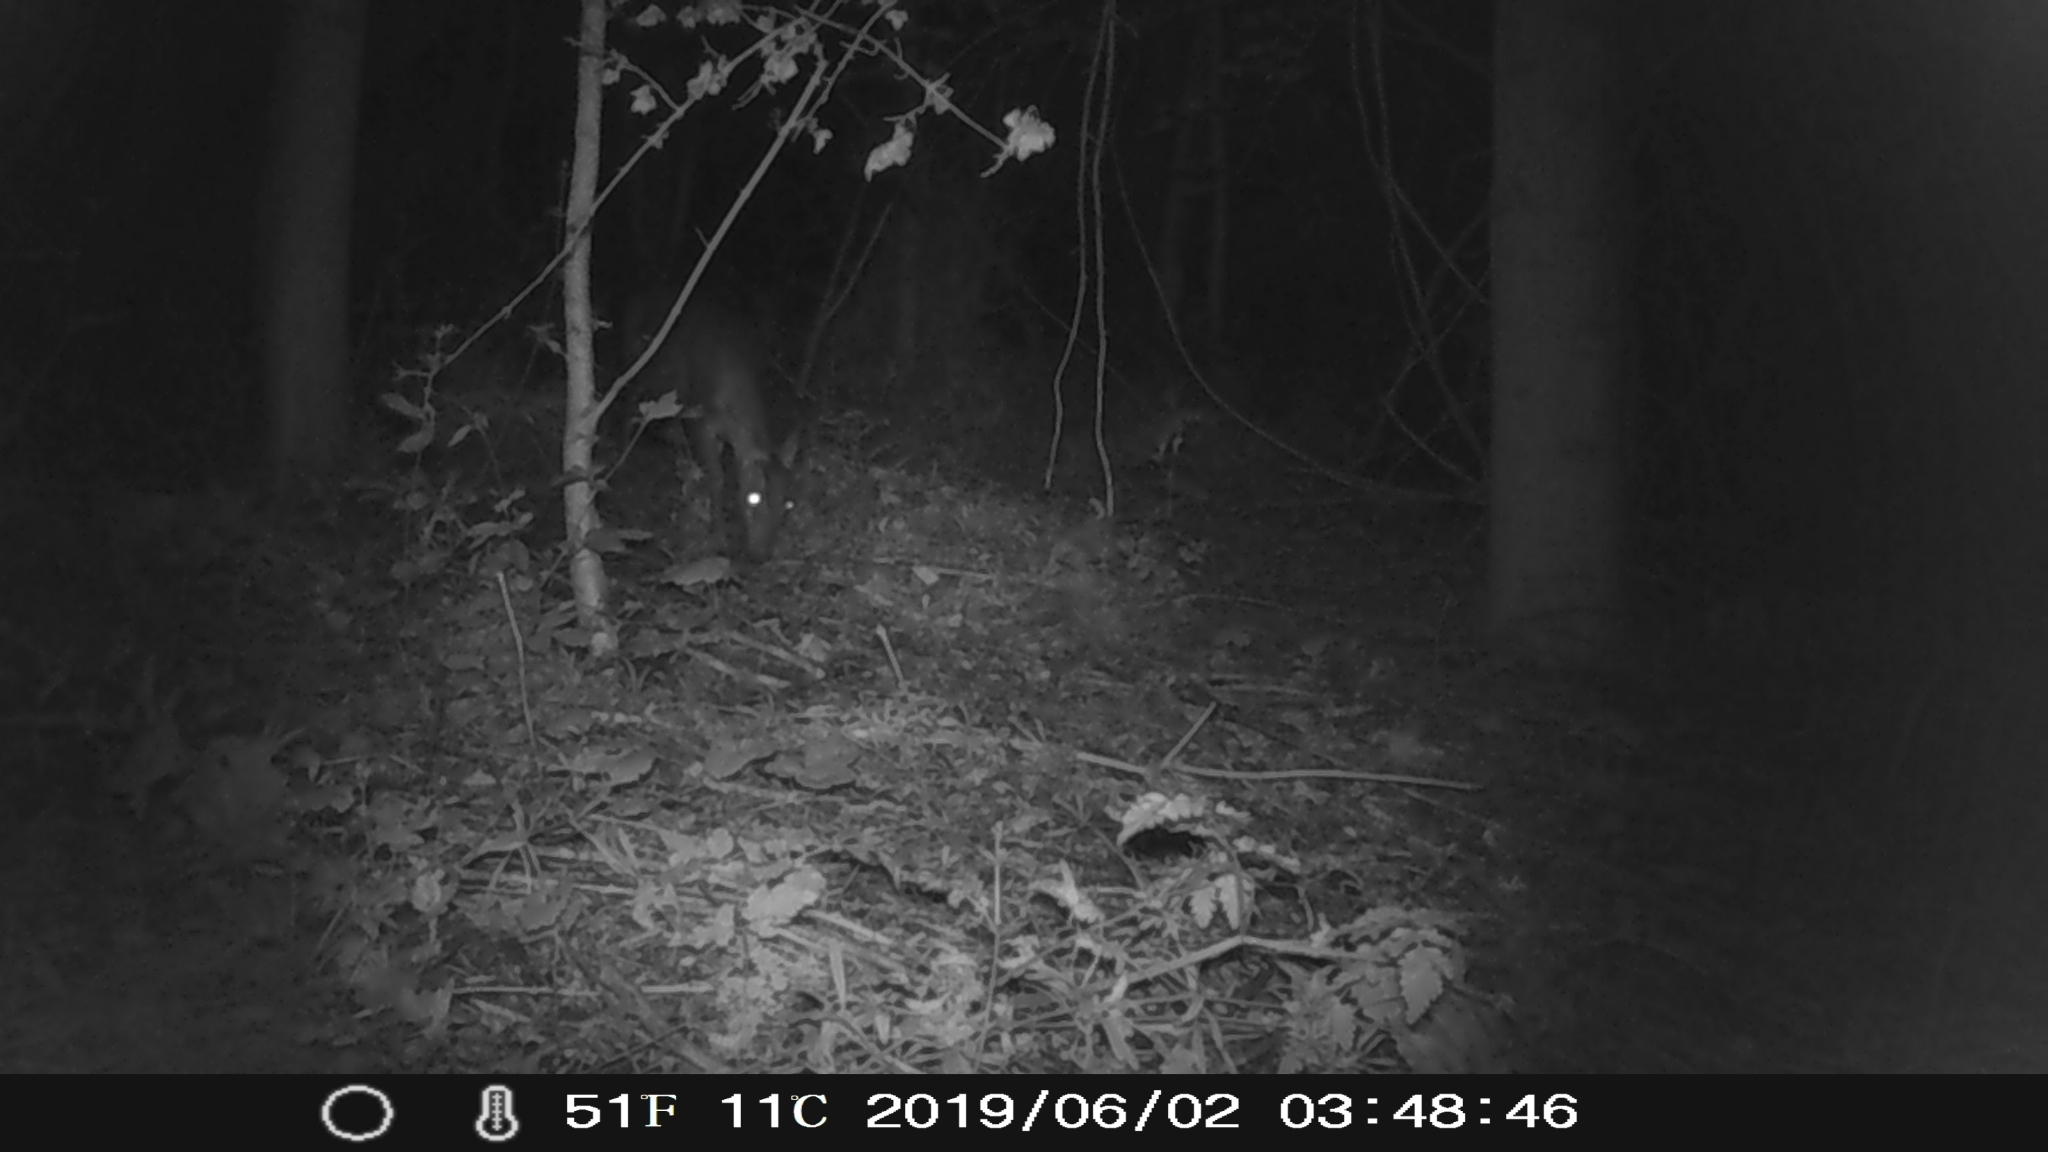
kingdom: Animalia
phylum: Chordata
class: Mammalia
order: Artiodactyla
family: Cervidae
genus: Muntiacus
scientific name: Muntiacus reevesi
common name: Reeves' muntjac
